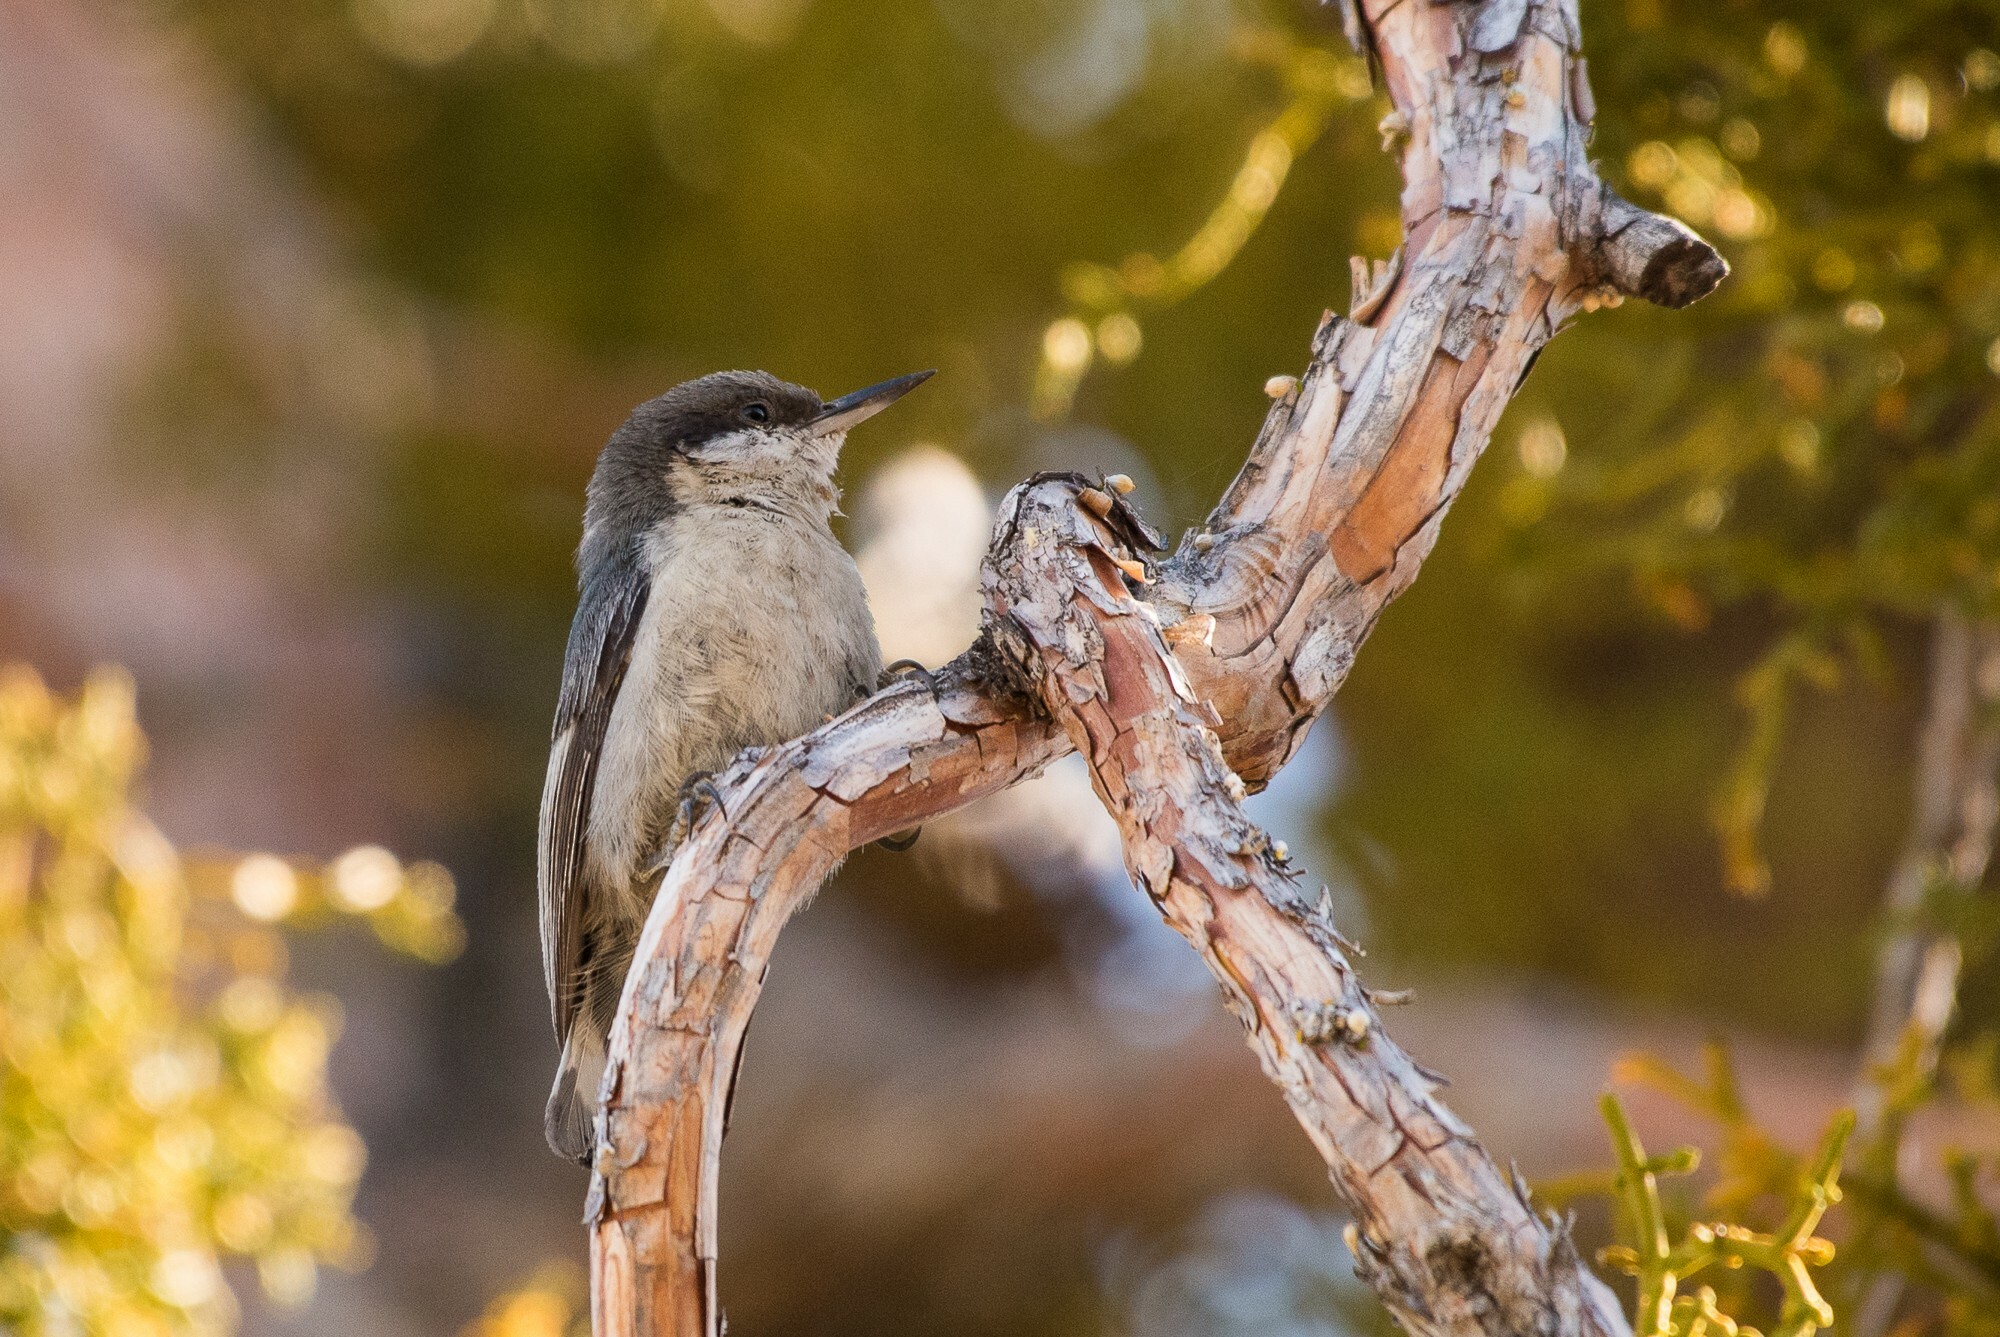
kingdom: Animalia
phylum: Chordata
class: Aves
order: Passeriformes
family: Sittidae
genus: Sitta
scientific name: Sitta pygmaea
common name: Pygmy nuthatch
